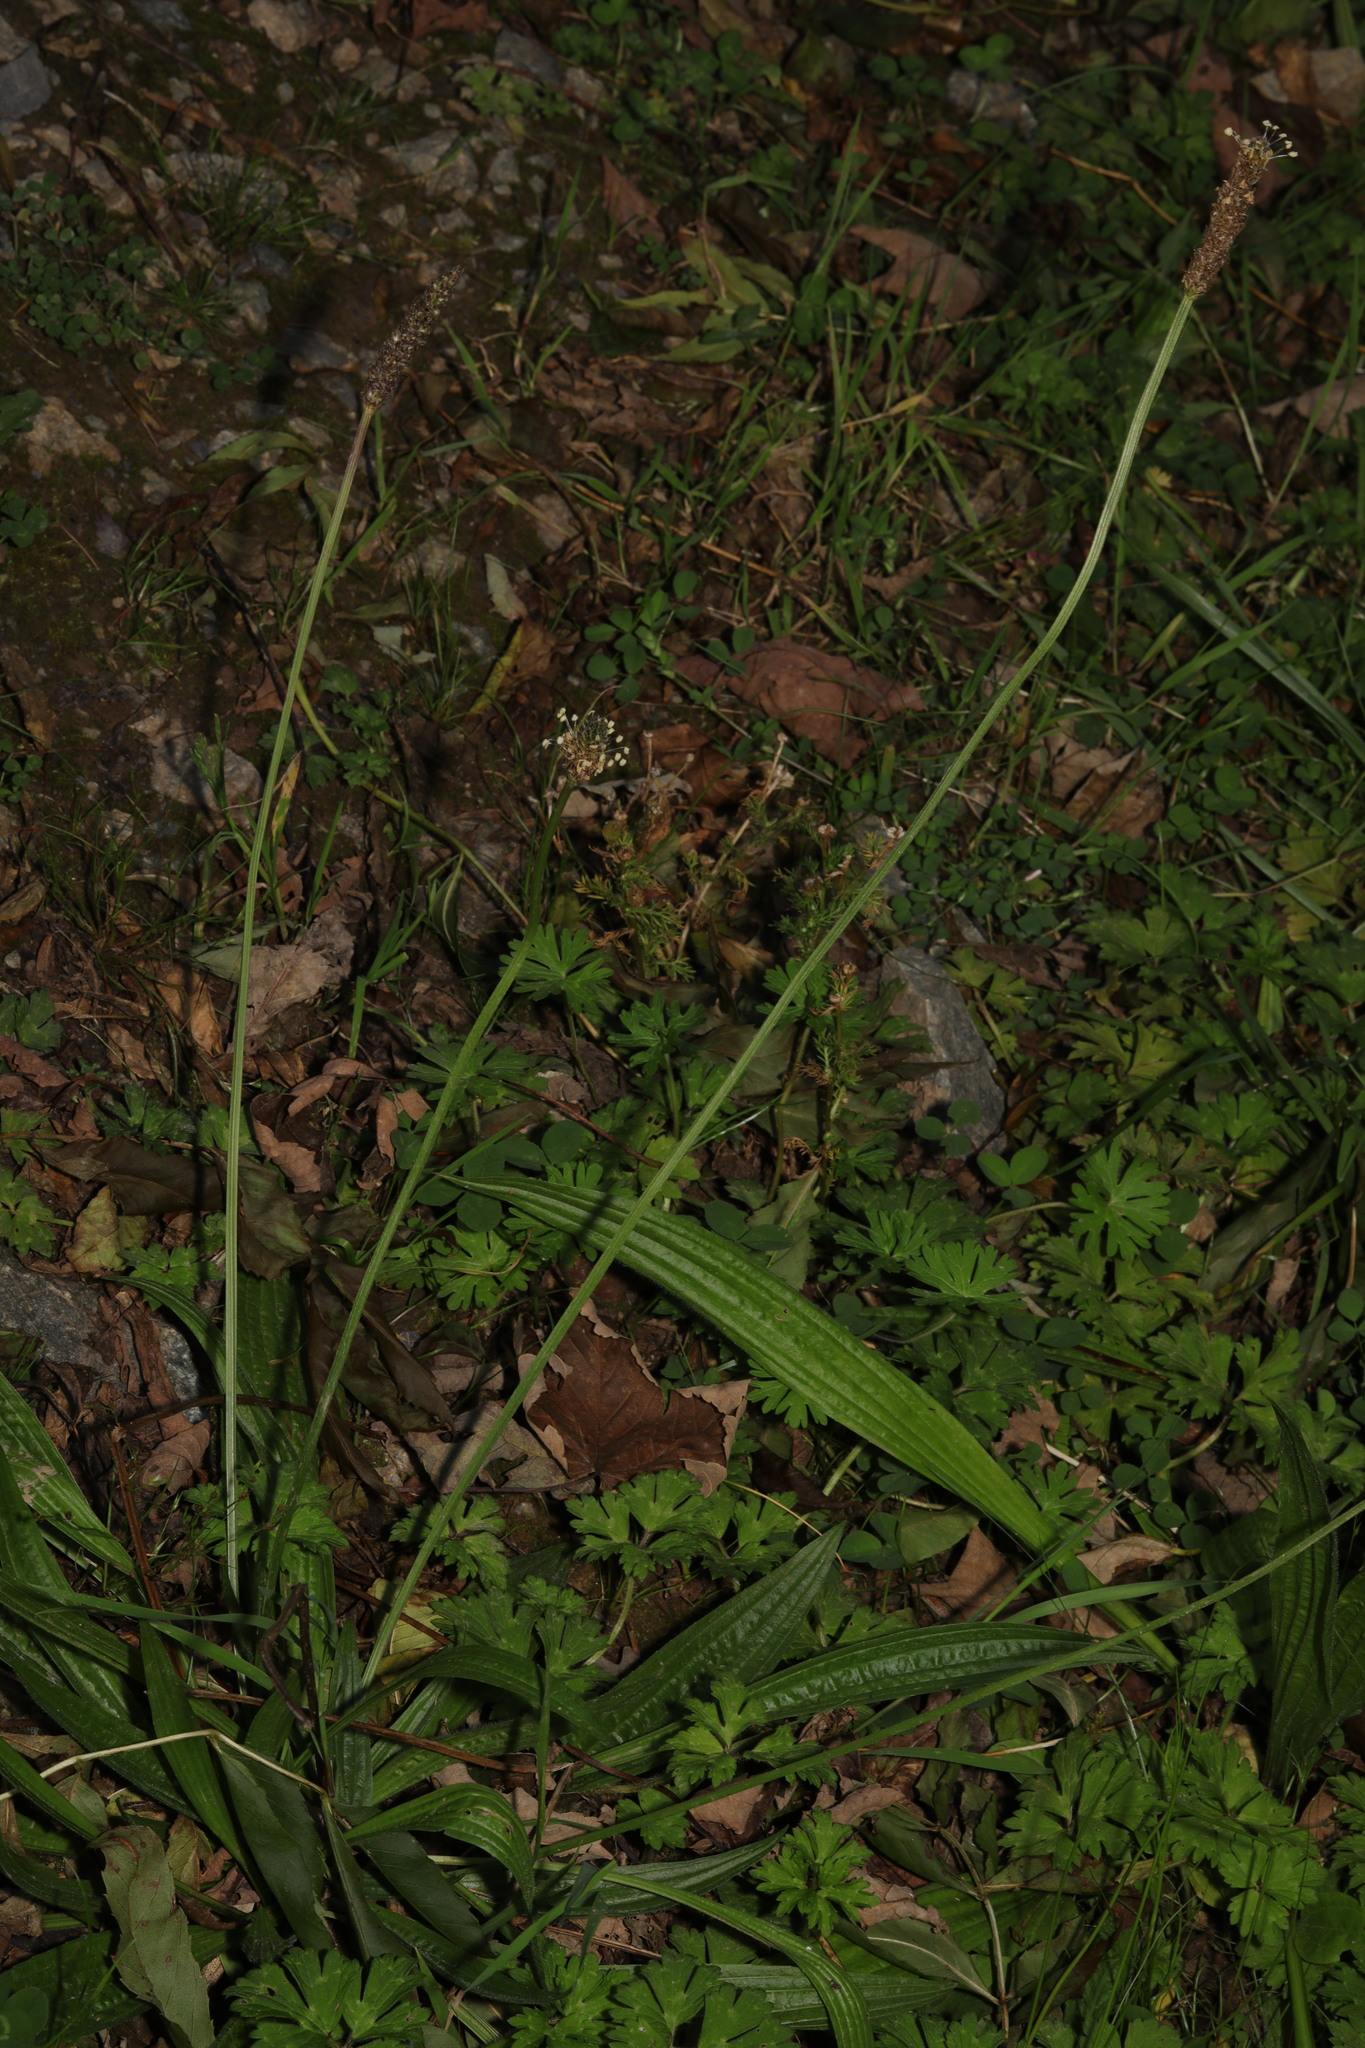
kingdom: Plantae
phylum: Tracheophyta
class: Magnoliopsida
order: Lamiales
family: Plantaginaceae
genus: Plantago
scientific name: Plantago lanceolata
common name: Ribwort plantain
